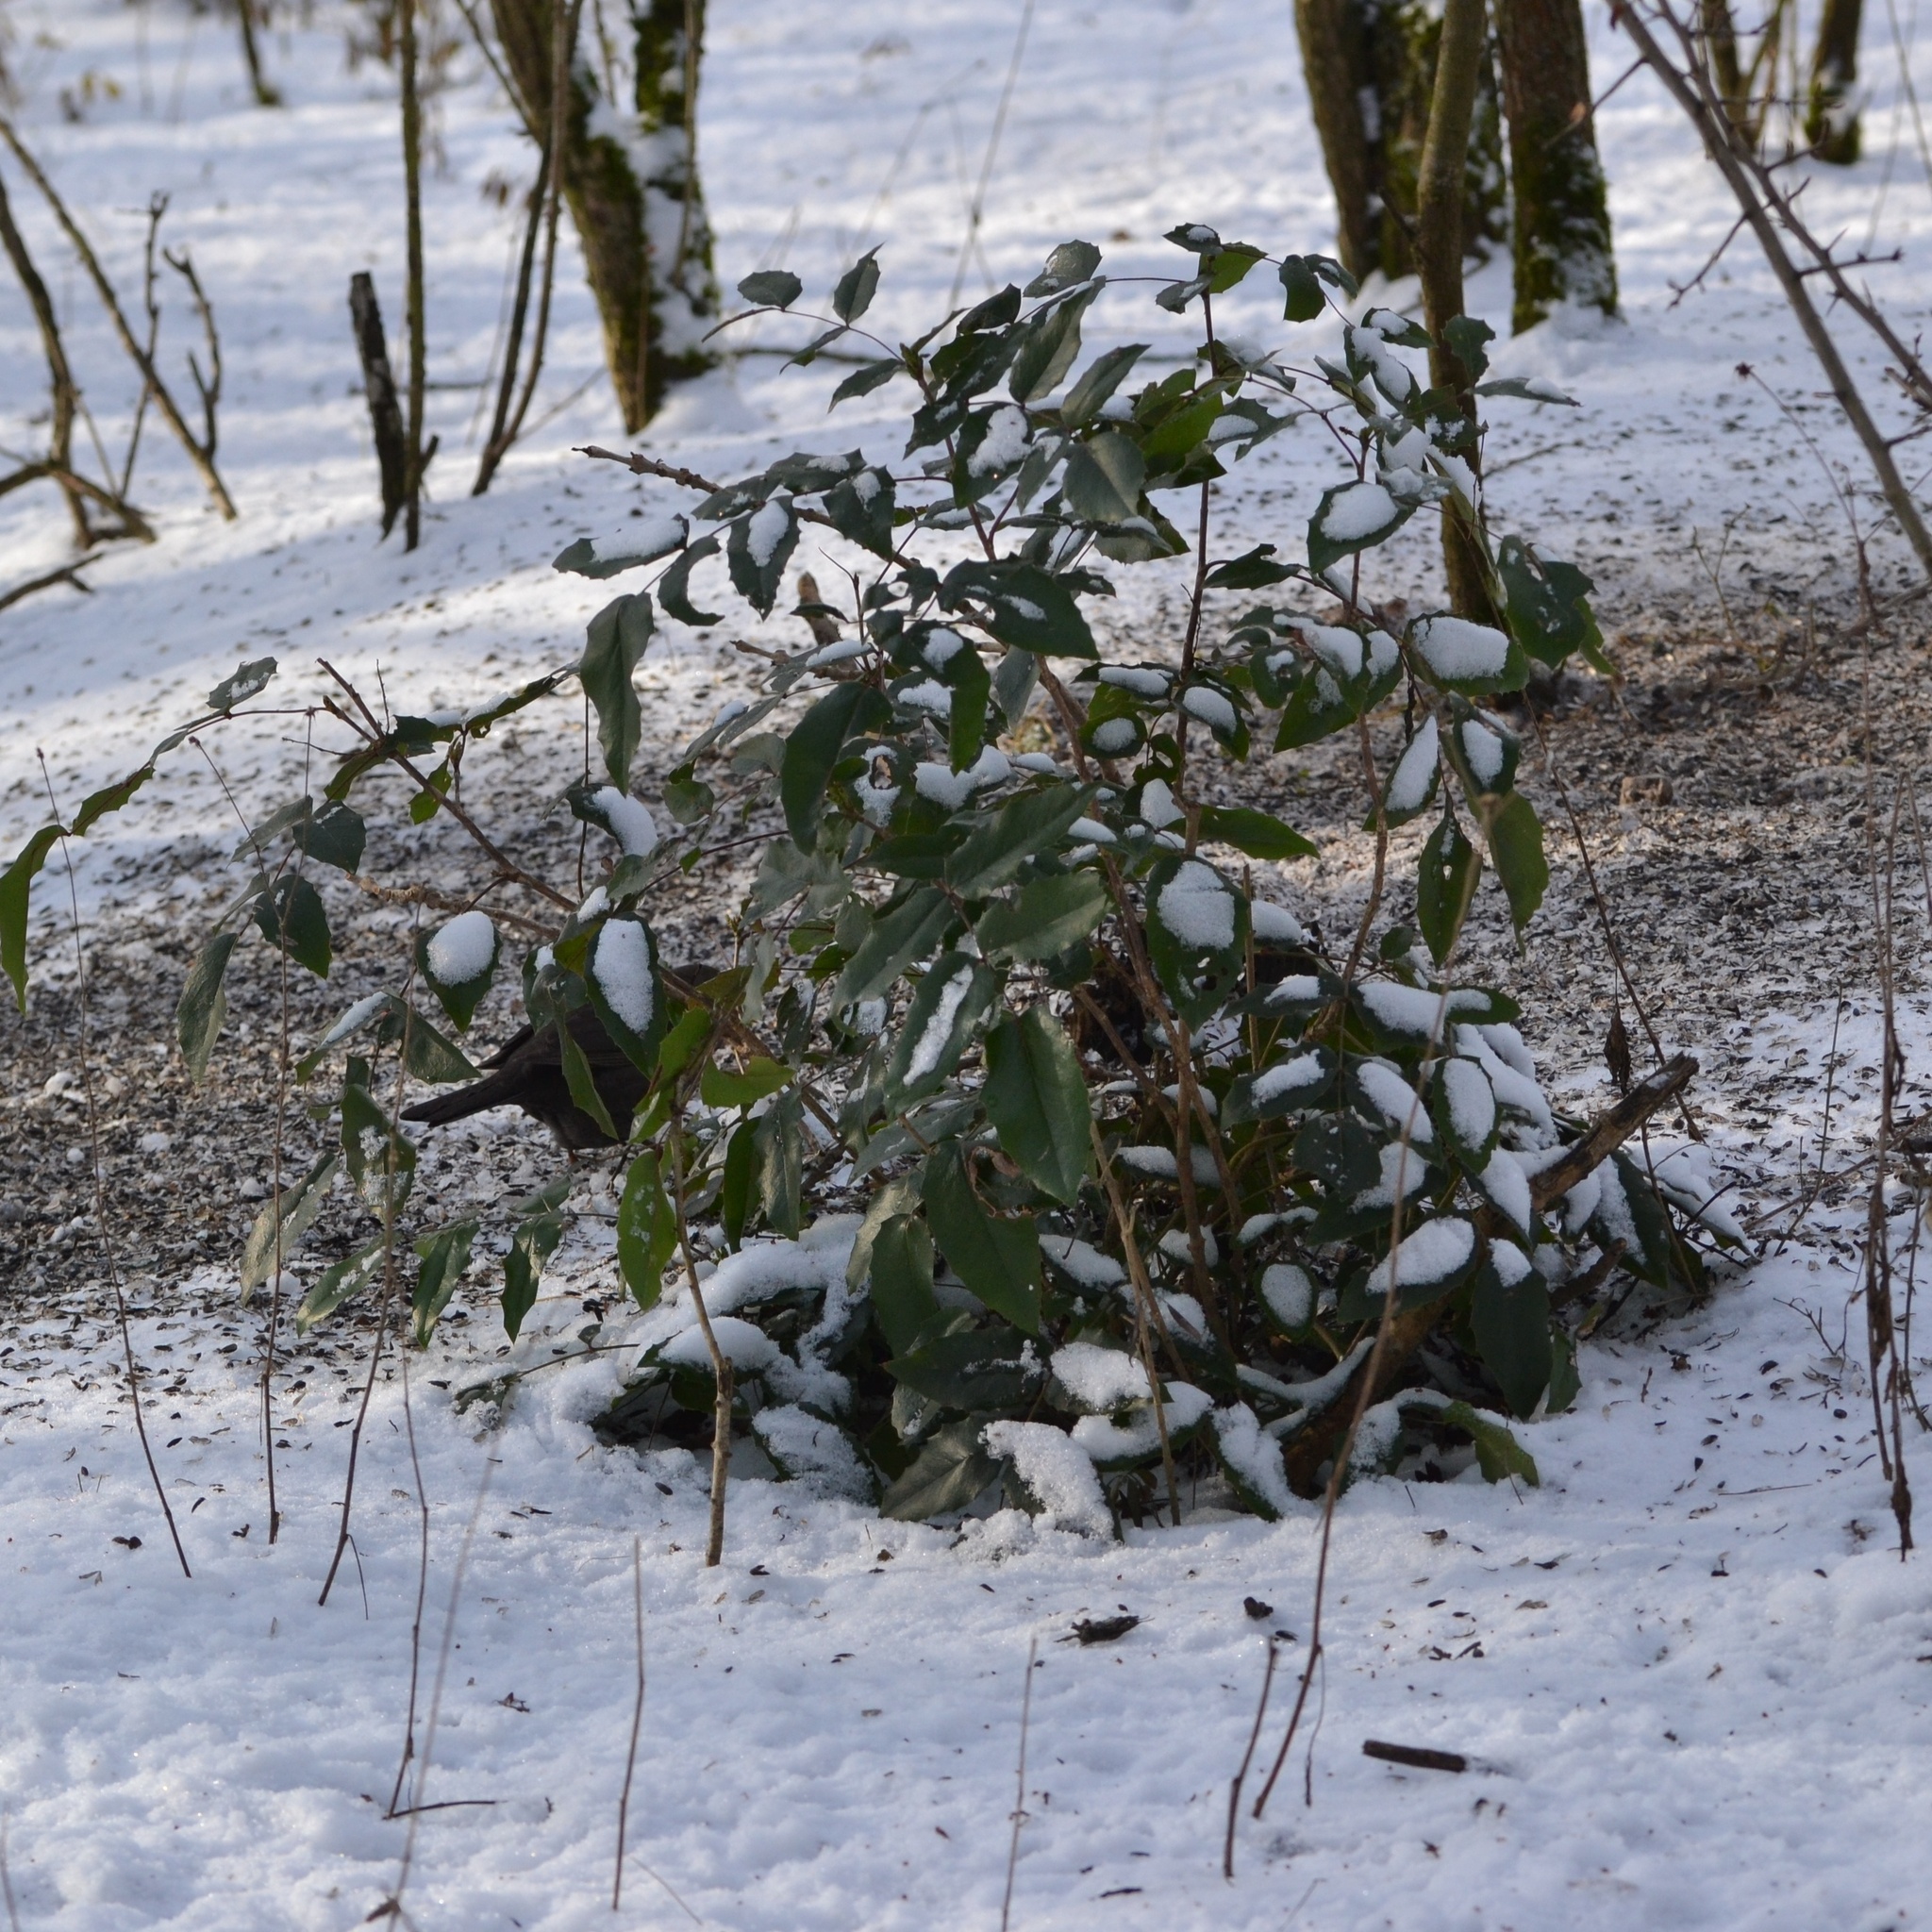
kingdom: Plantae
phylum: Tracheophyta
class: Magnoliopsida
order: Ranunculales
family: Berberidaceae
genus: Mahonia
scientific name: Mahonia aquifolium
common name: Oregon-grape
